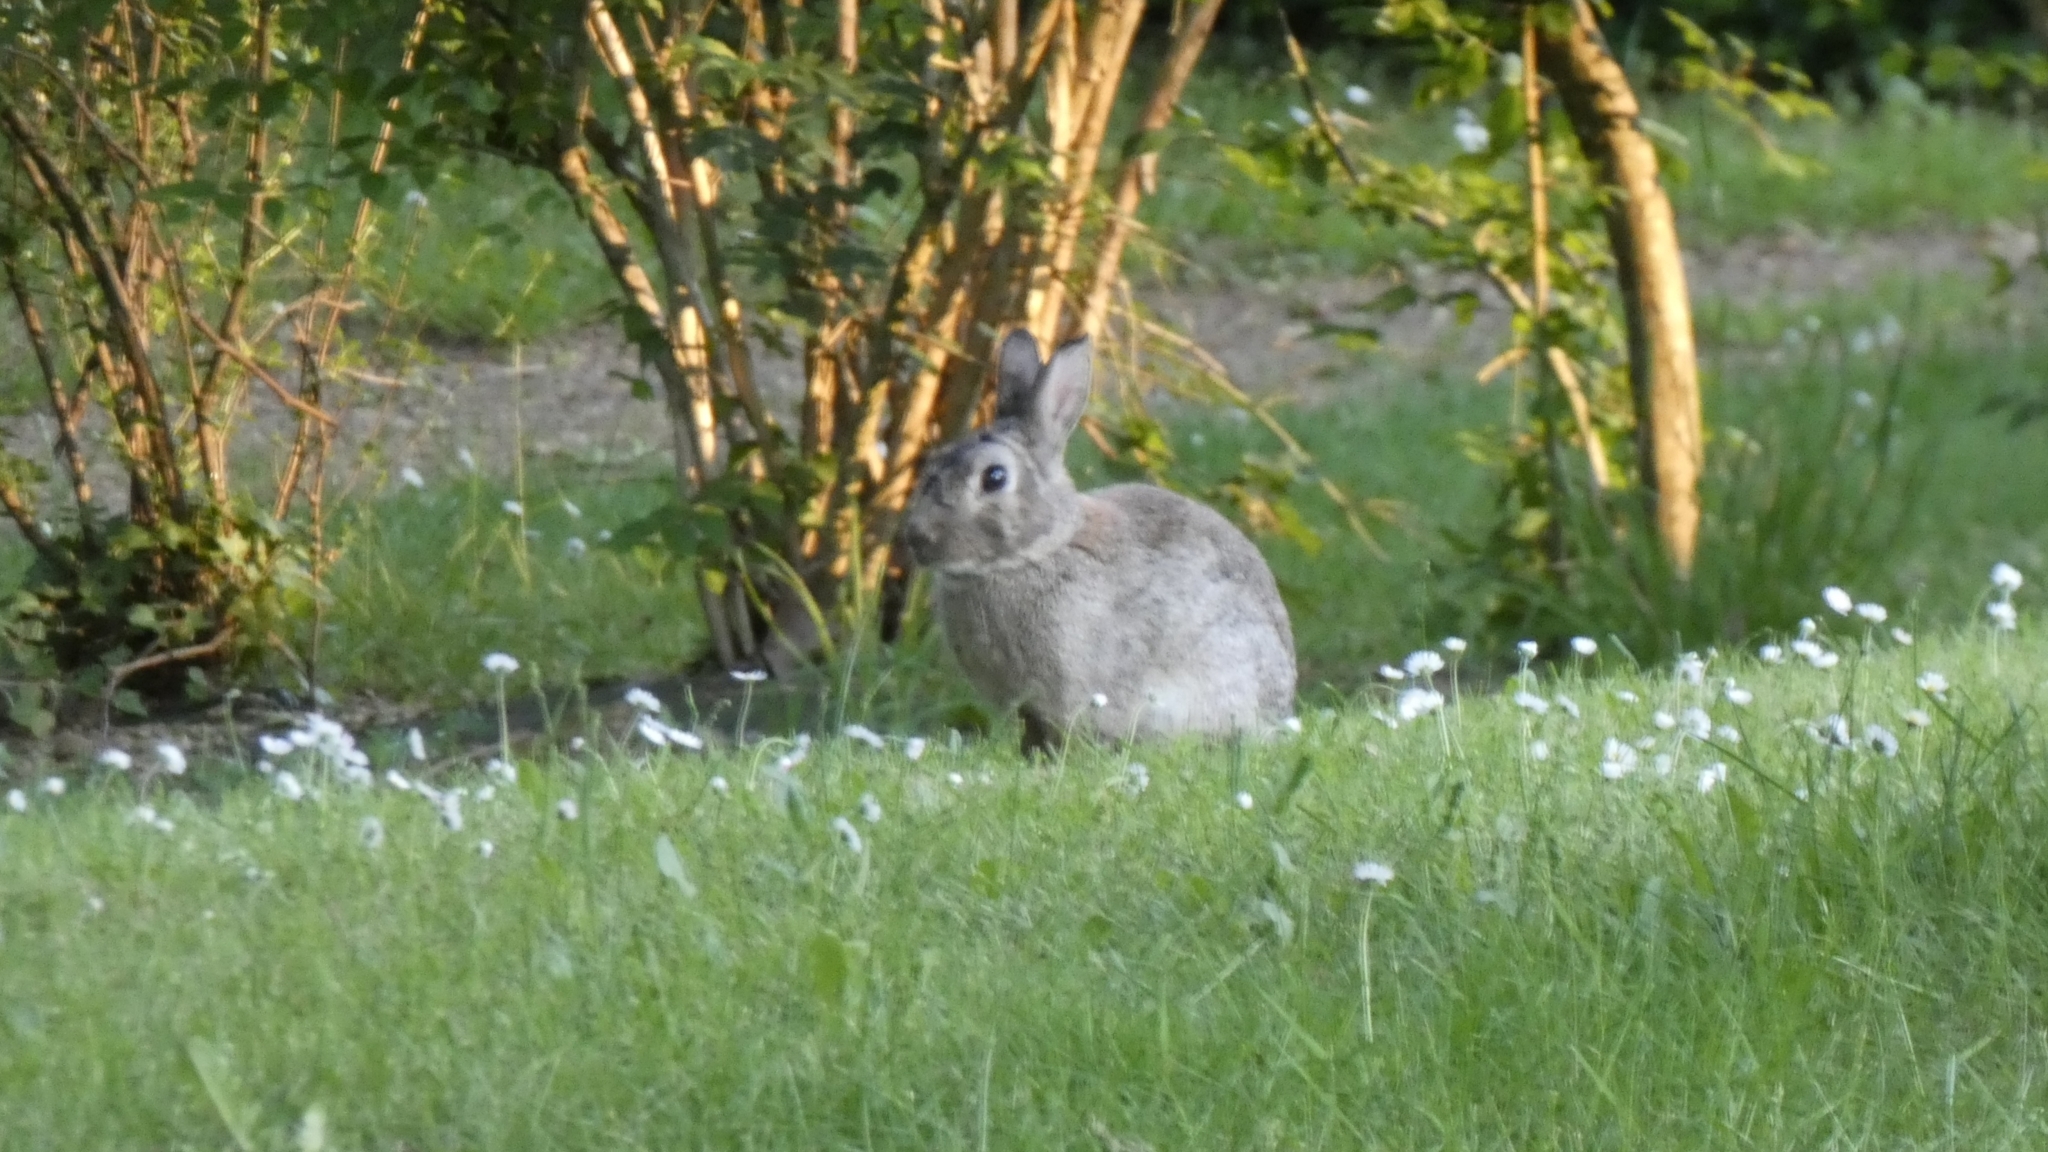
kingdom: Animalia
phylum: Chordata
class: Mammalia
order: Lagomorpha
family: Leporidae
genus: Oryctolagus
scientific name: Oryctolagus cuniculus
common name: European rabbit
